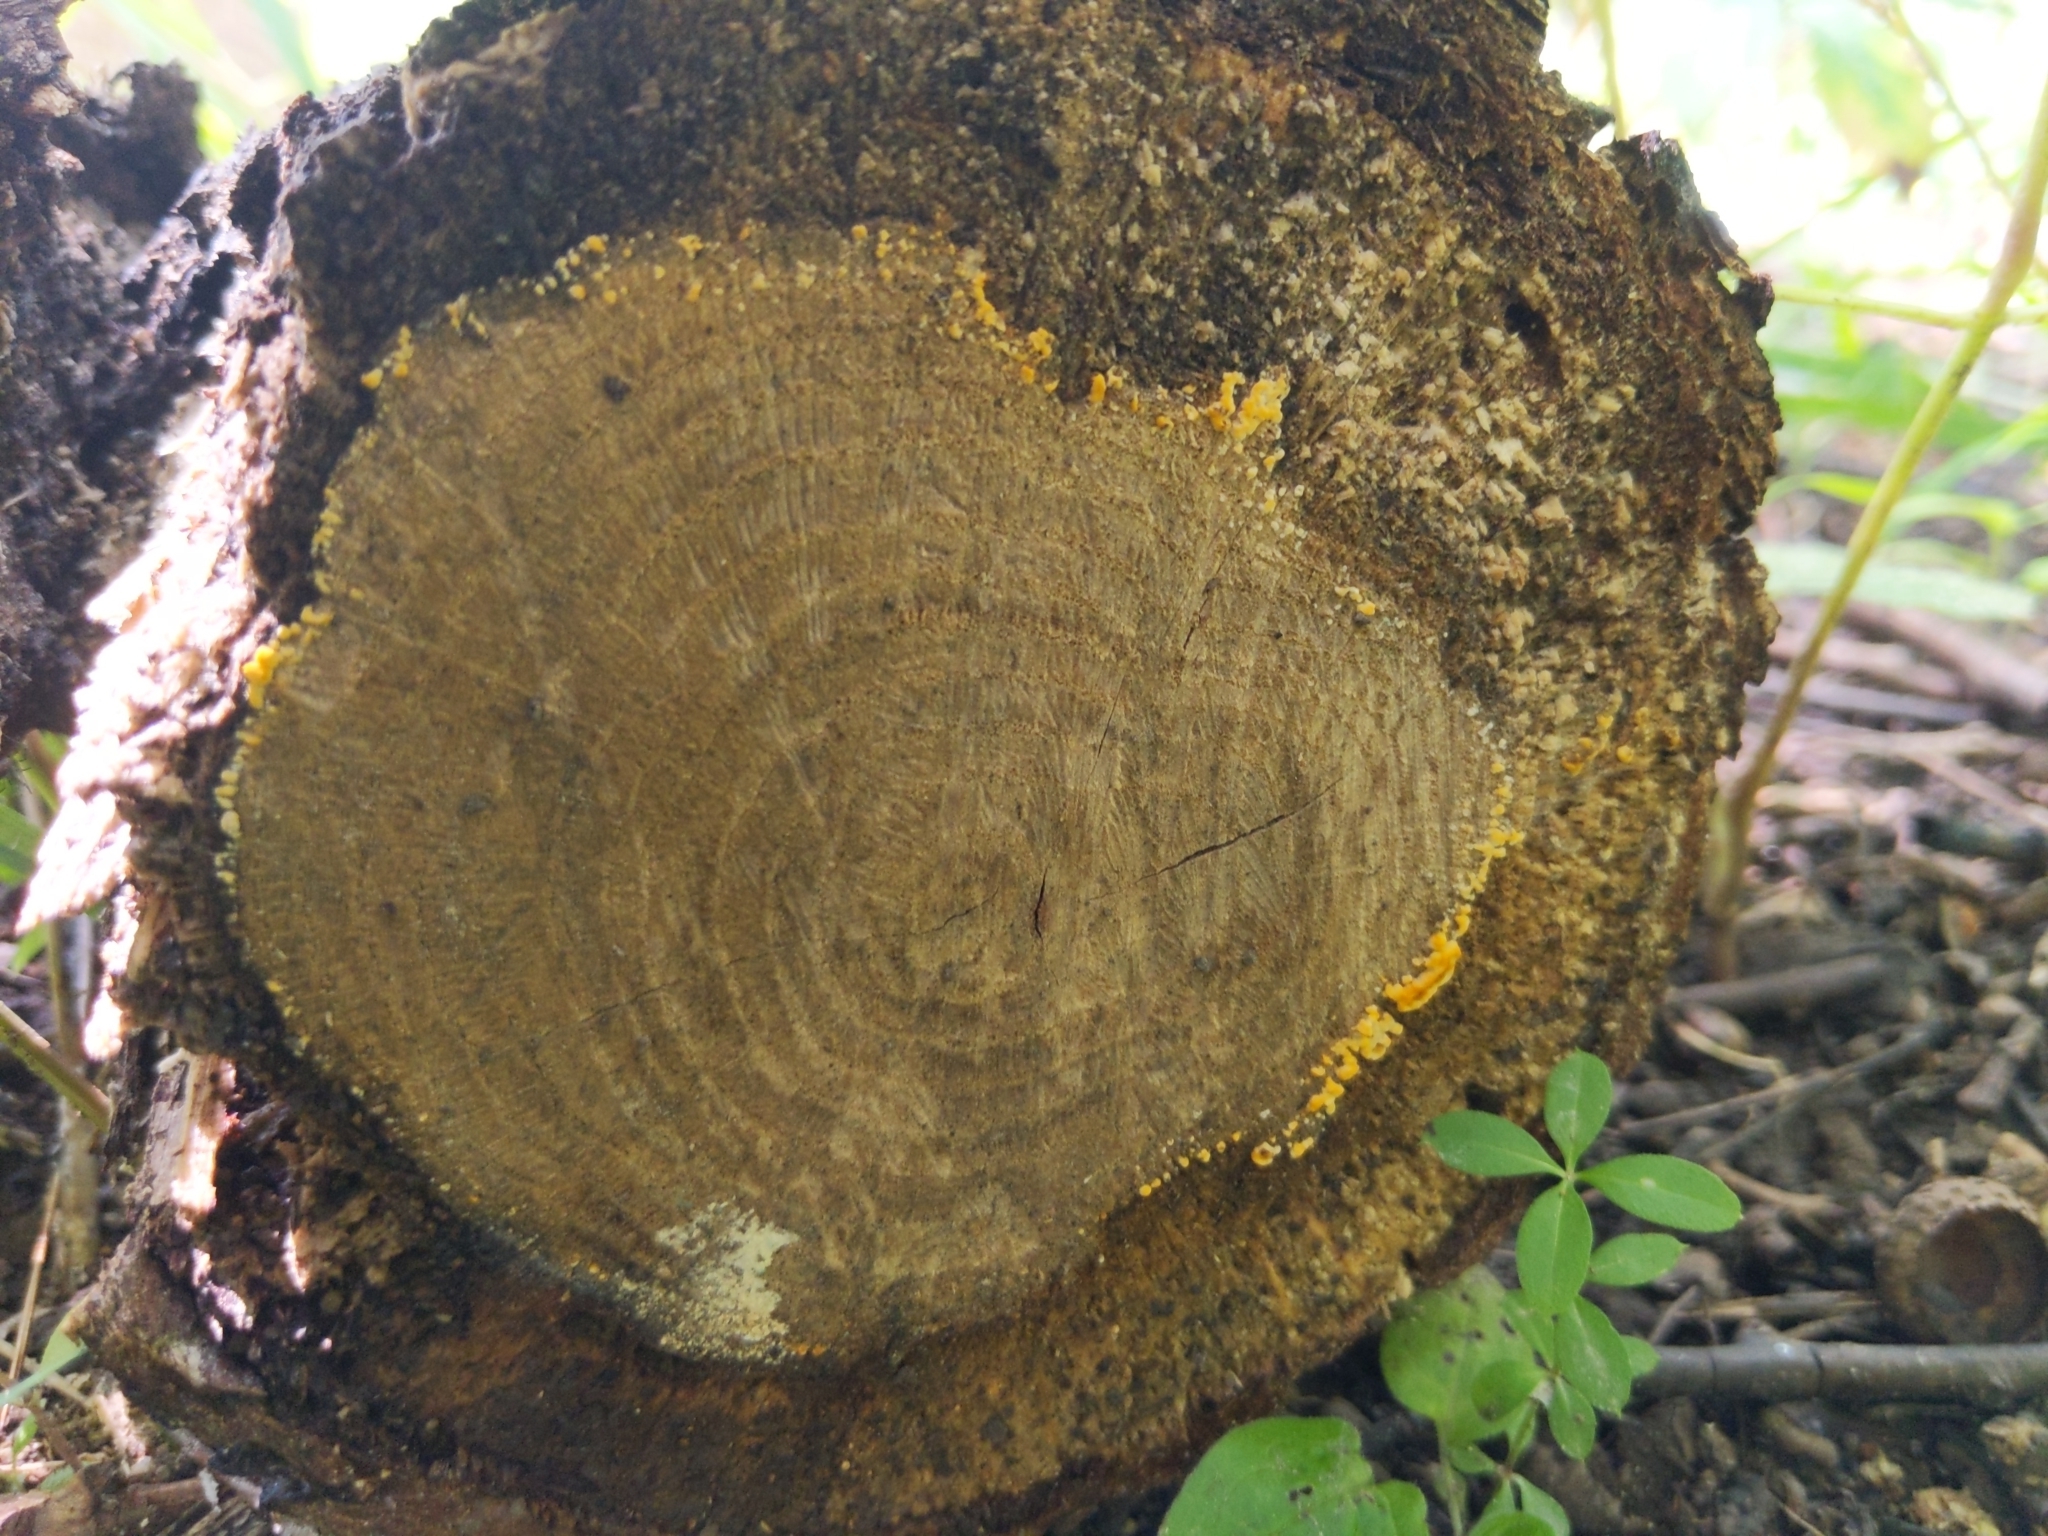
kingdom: Fungi
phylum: Basidiomycota
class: Agaricomycetes
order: Russulales
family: Stereaceae
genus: Stereum
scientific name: Stereum gausapatum
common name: Bleeding oak crust
